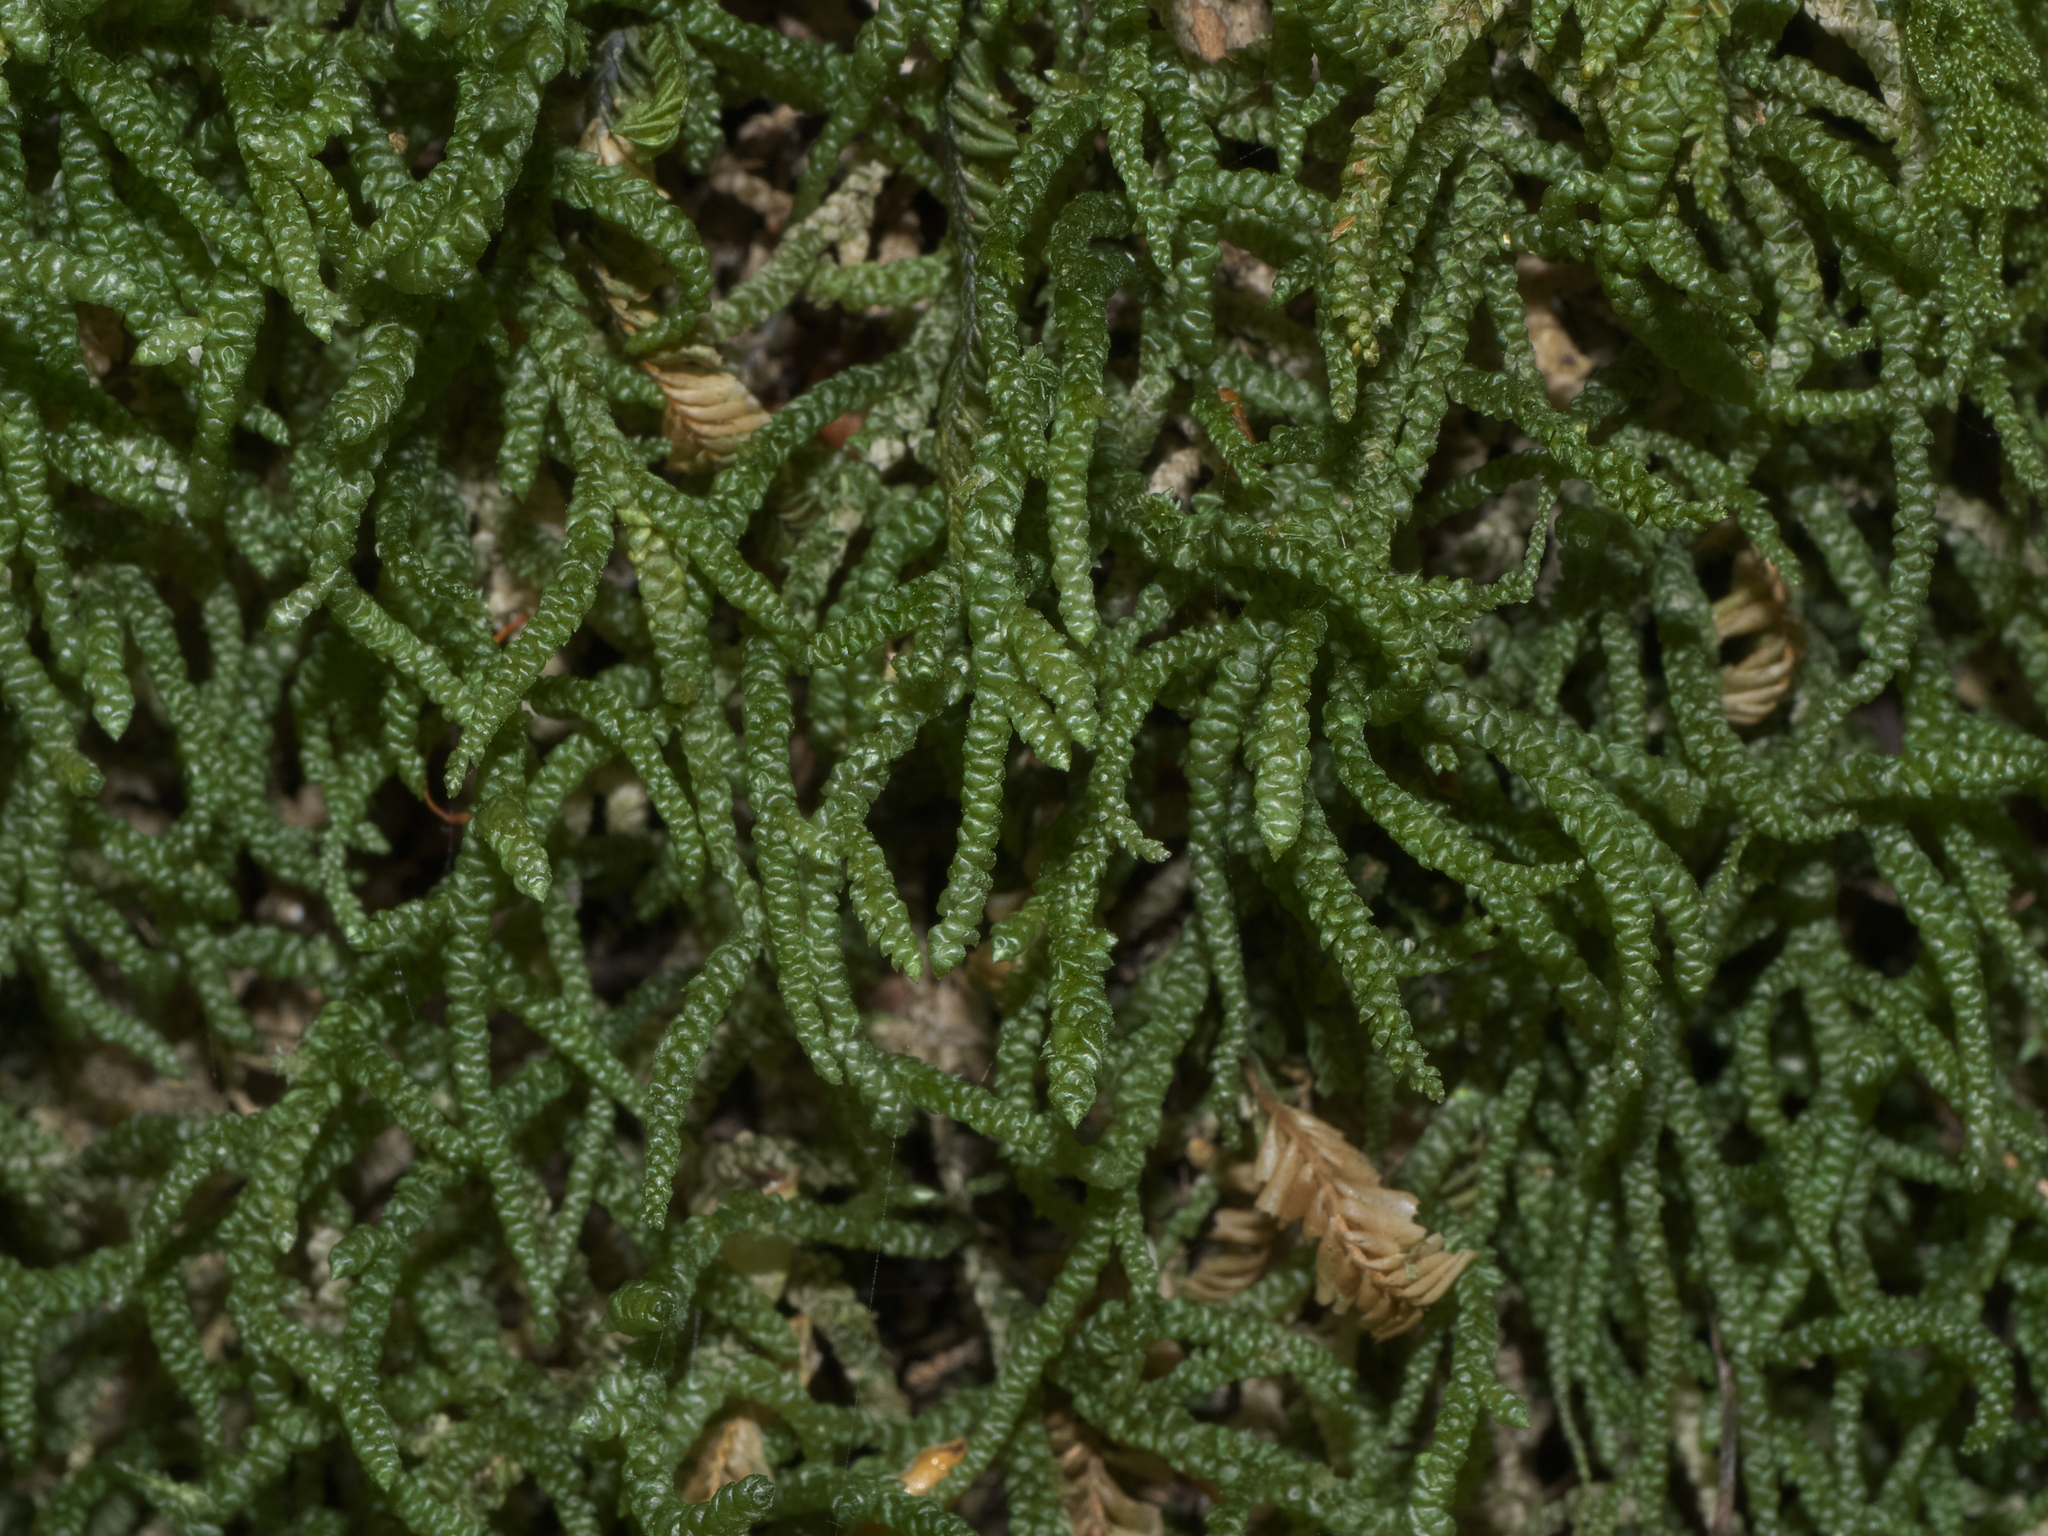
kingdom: Plantae
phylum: Bryophyta
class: Bryopsida
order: Hypnales
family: Lembophyllaceae
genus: Lembophyllum
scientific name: Lembophyllum divulsum
